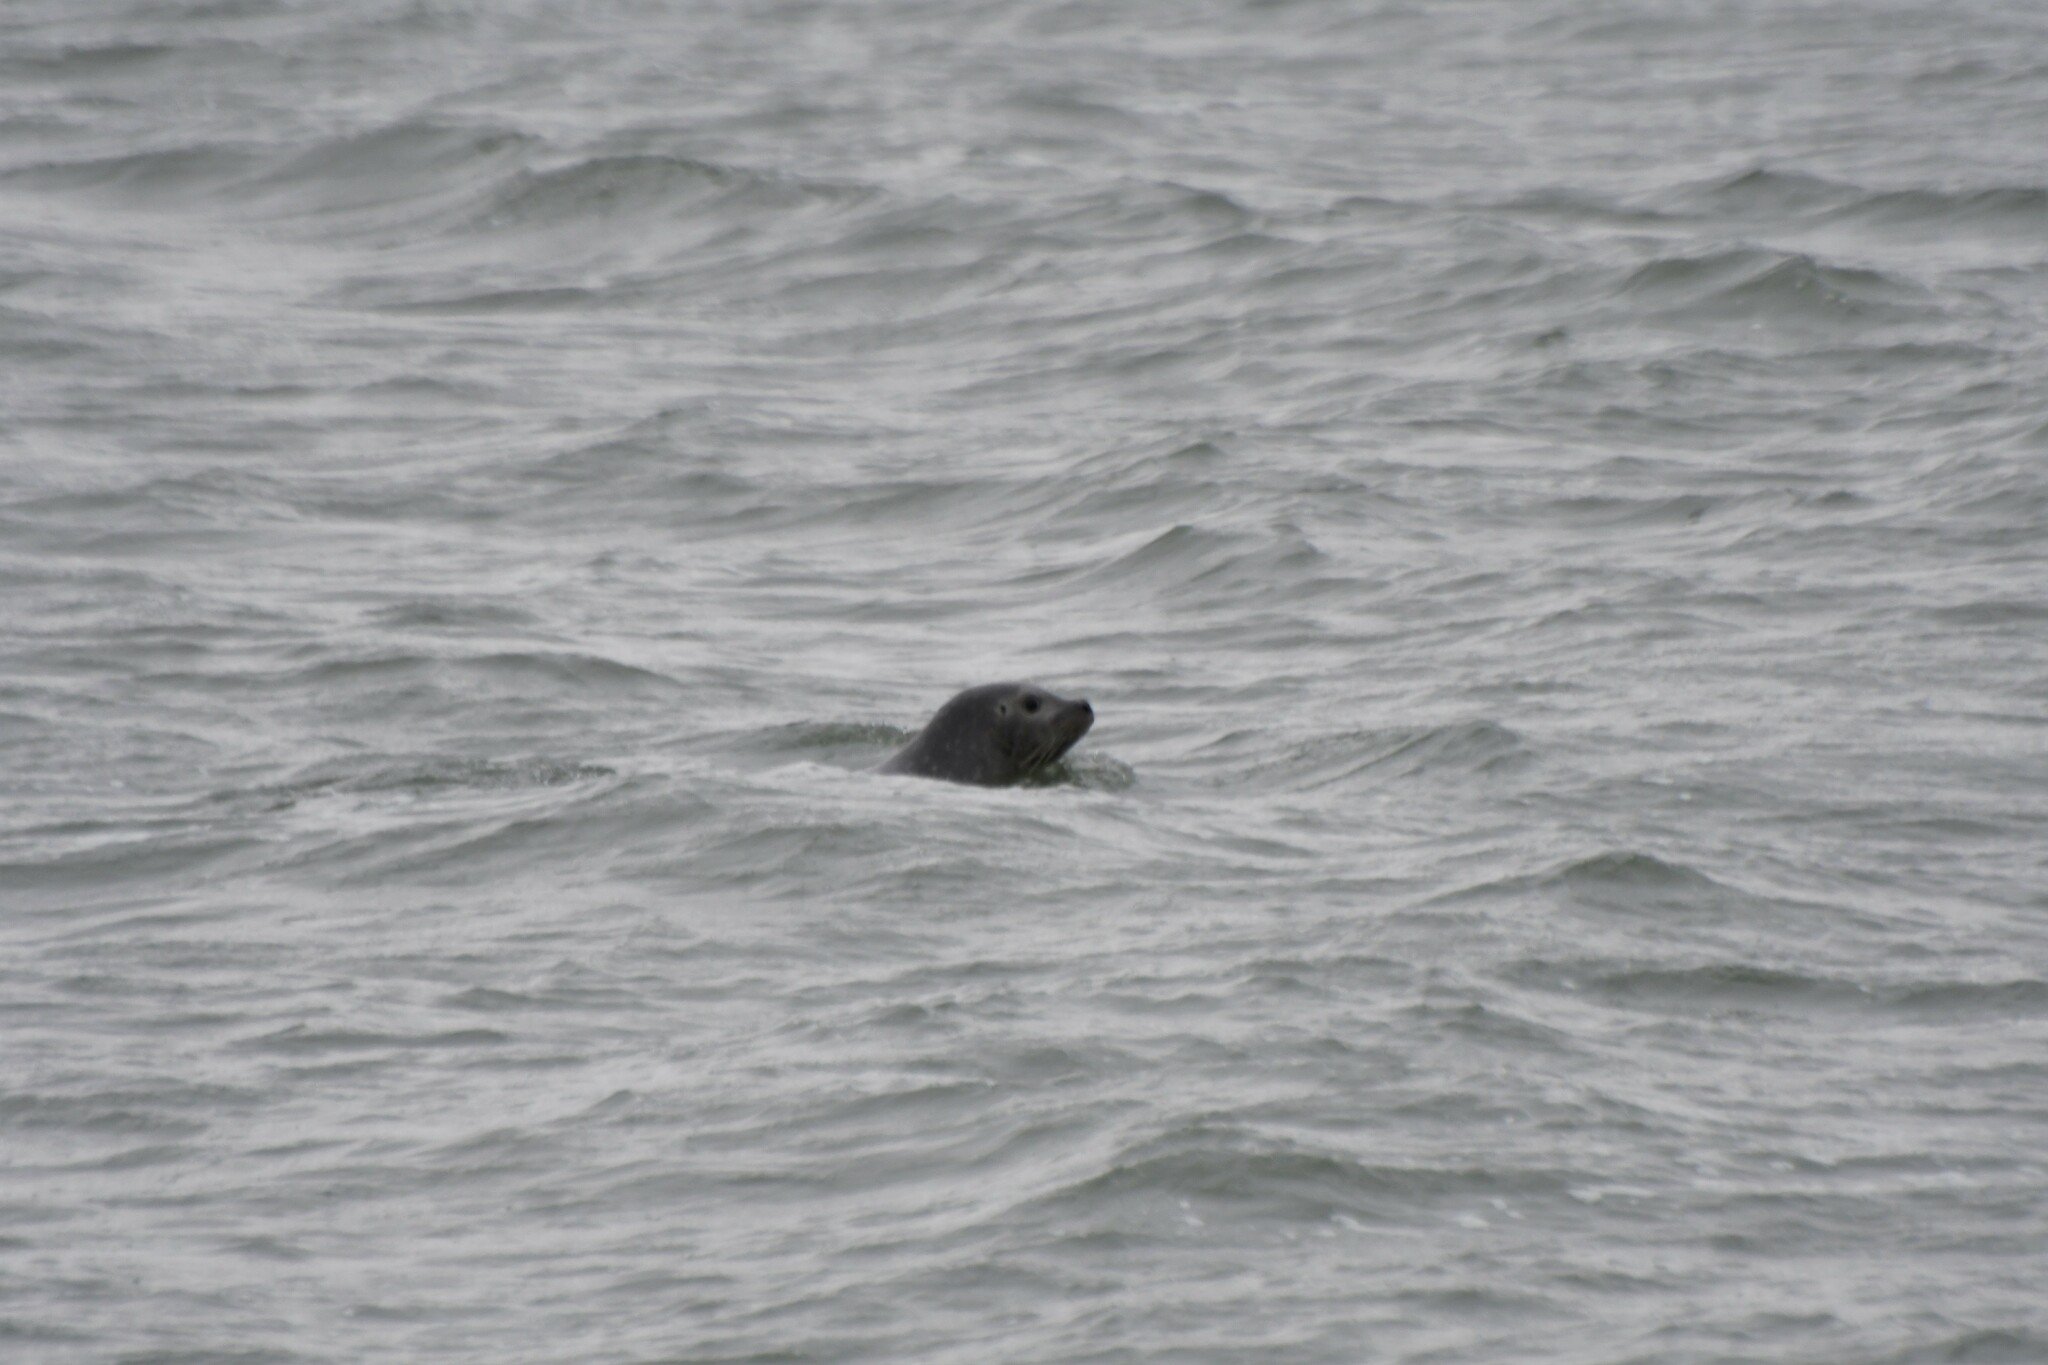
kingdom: Animalia
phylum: Chordata
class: Mammalia
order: Carnivora
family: Phocidae
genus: Phoca
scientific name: Phoca vitulina
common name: Harbor seal
